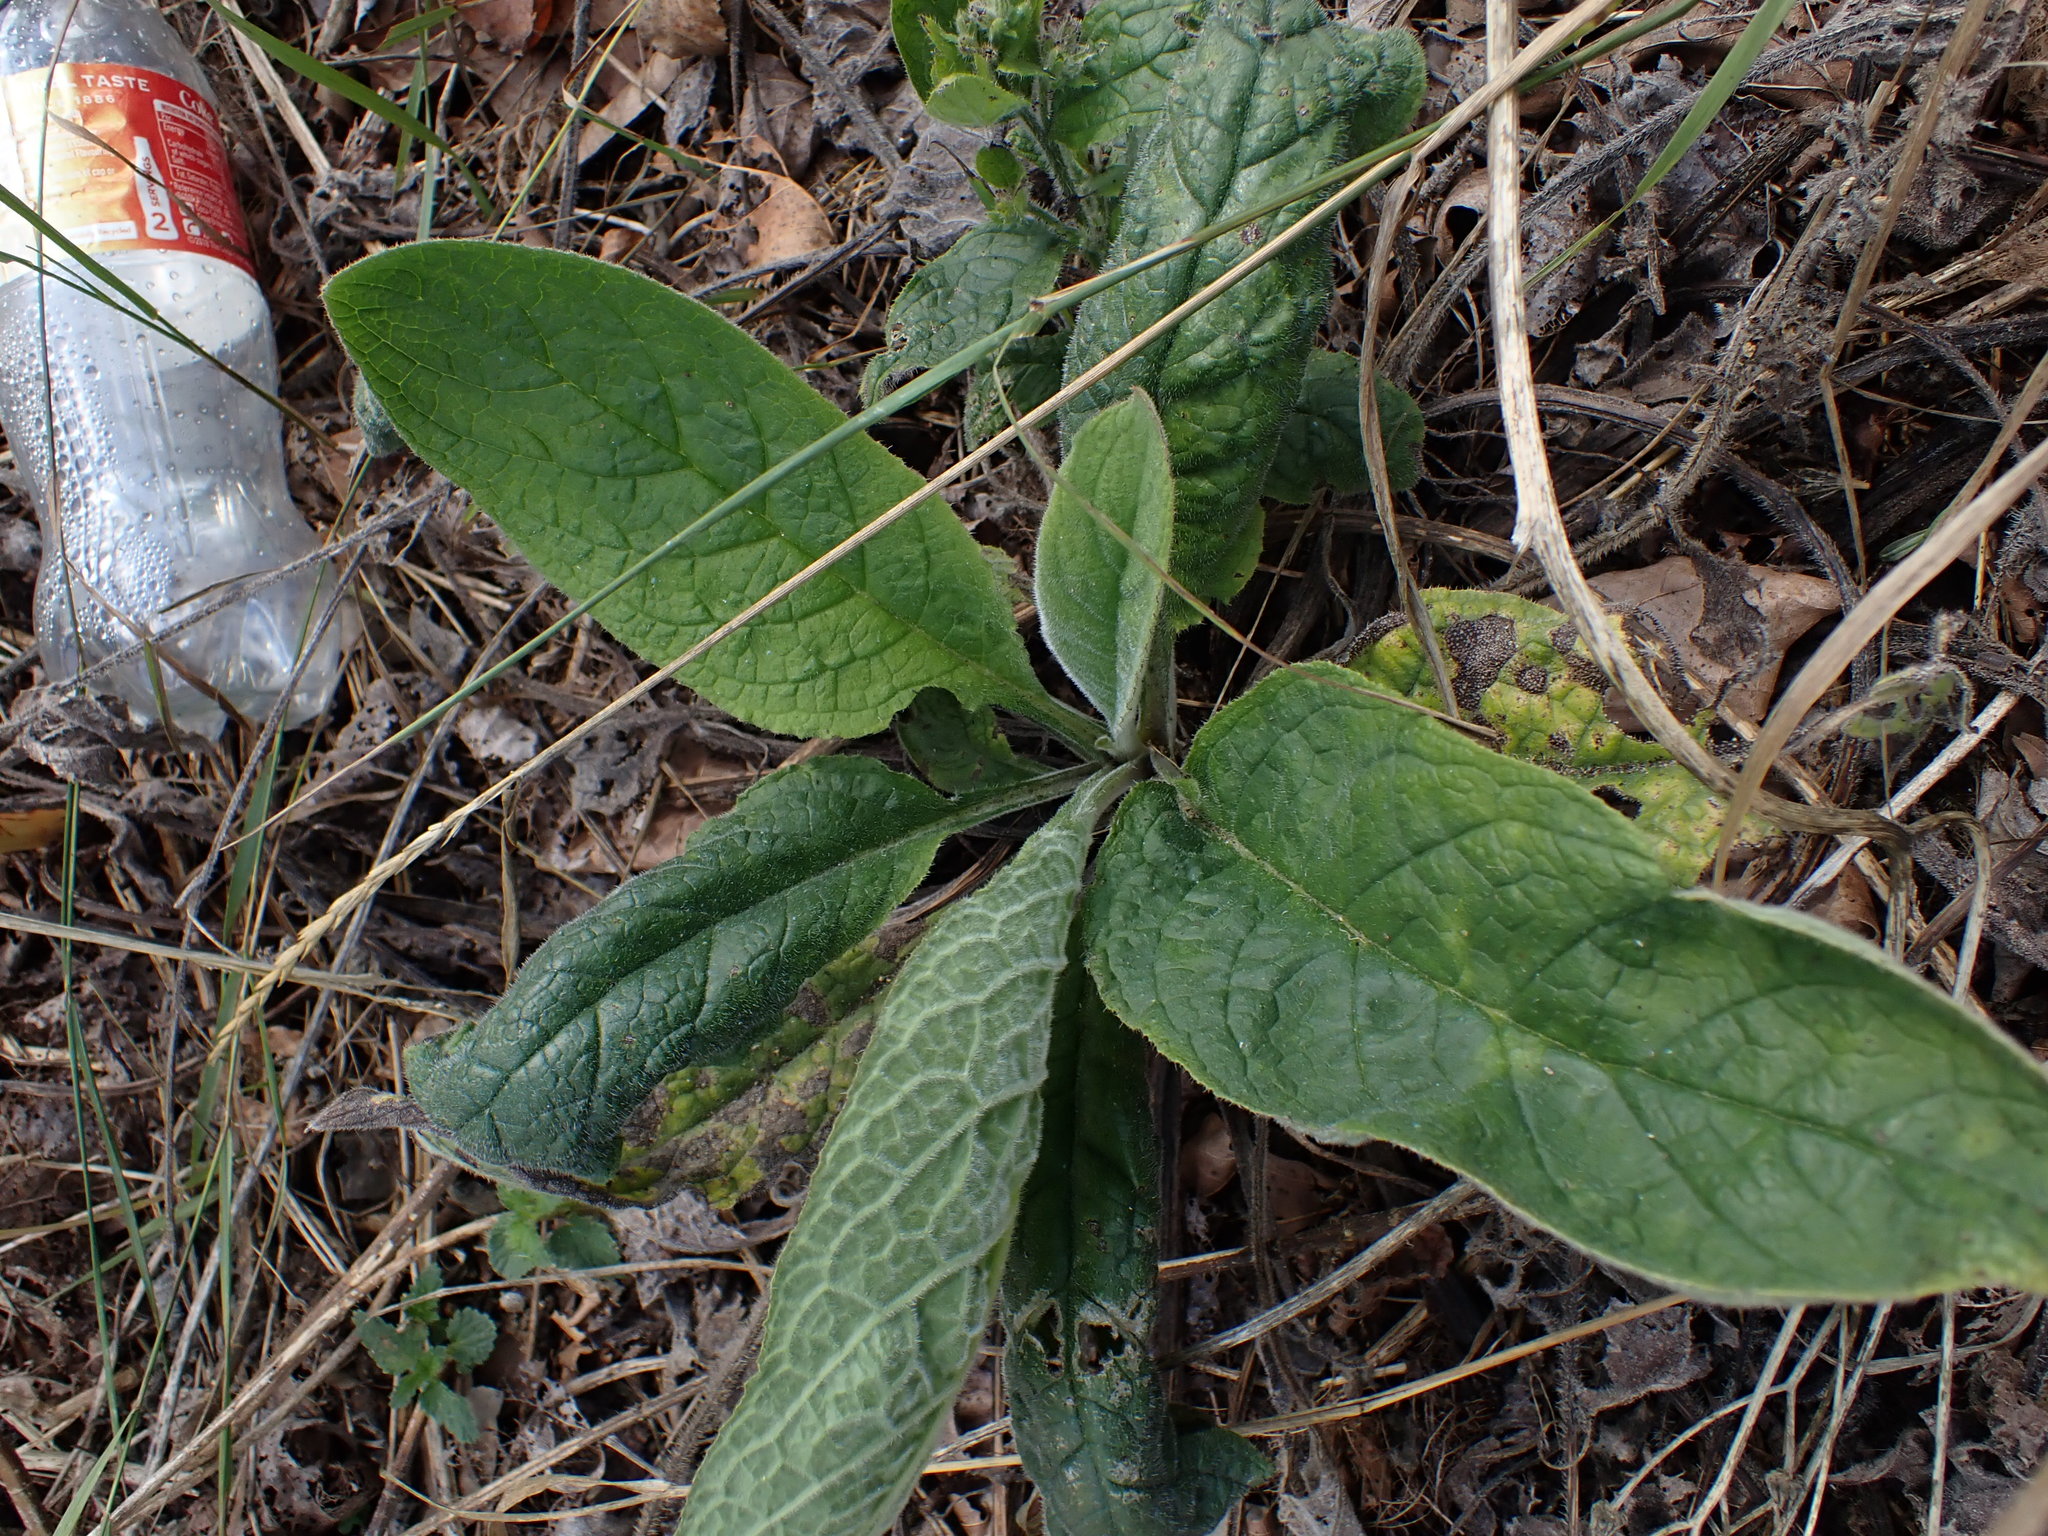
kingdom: Plantae
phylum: Tracheophyta
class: Magnoliopsida
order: Lamiales
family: Plantaginaceae
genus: Digitalis
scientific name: Digitalis purpurea
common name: Foxglove
